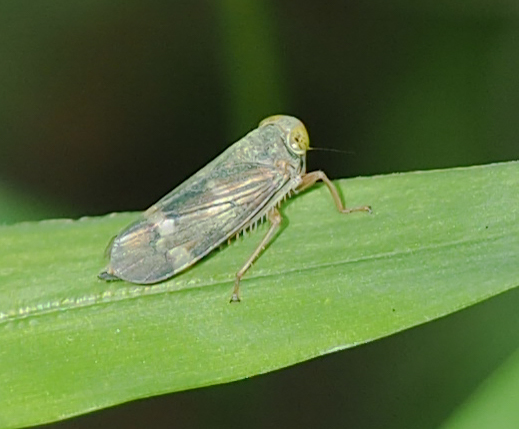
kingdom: Animalia
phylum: Arthropoda
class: Insecta
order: Hemiptera
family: Cicadellidae
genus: Jikradia
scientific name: Jikradia olitoria
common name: Coppery leafhopper
